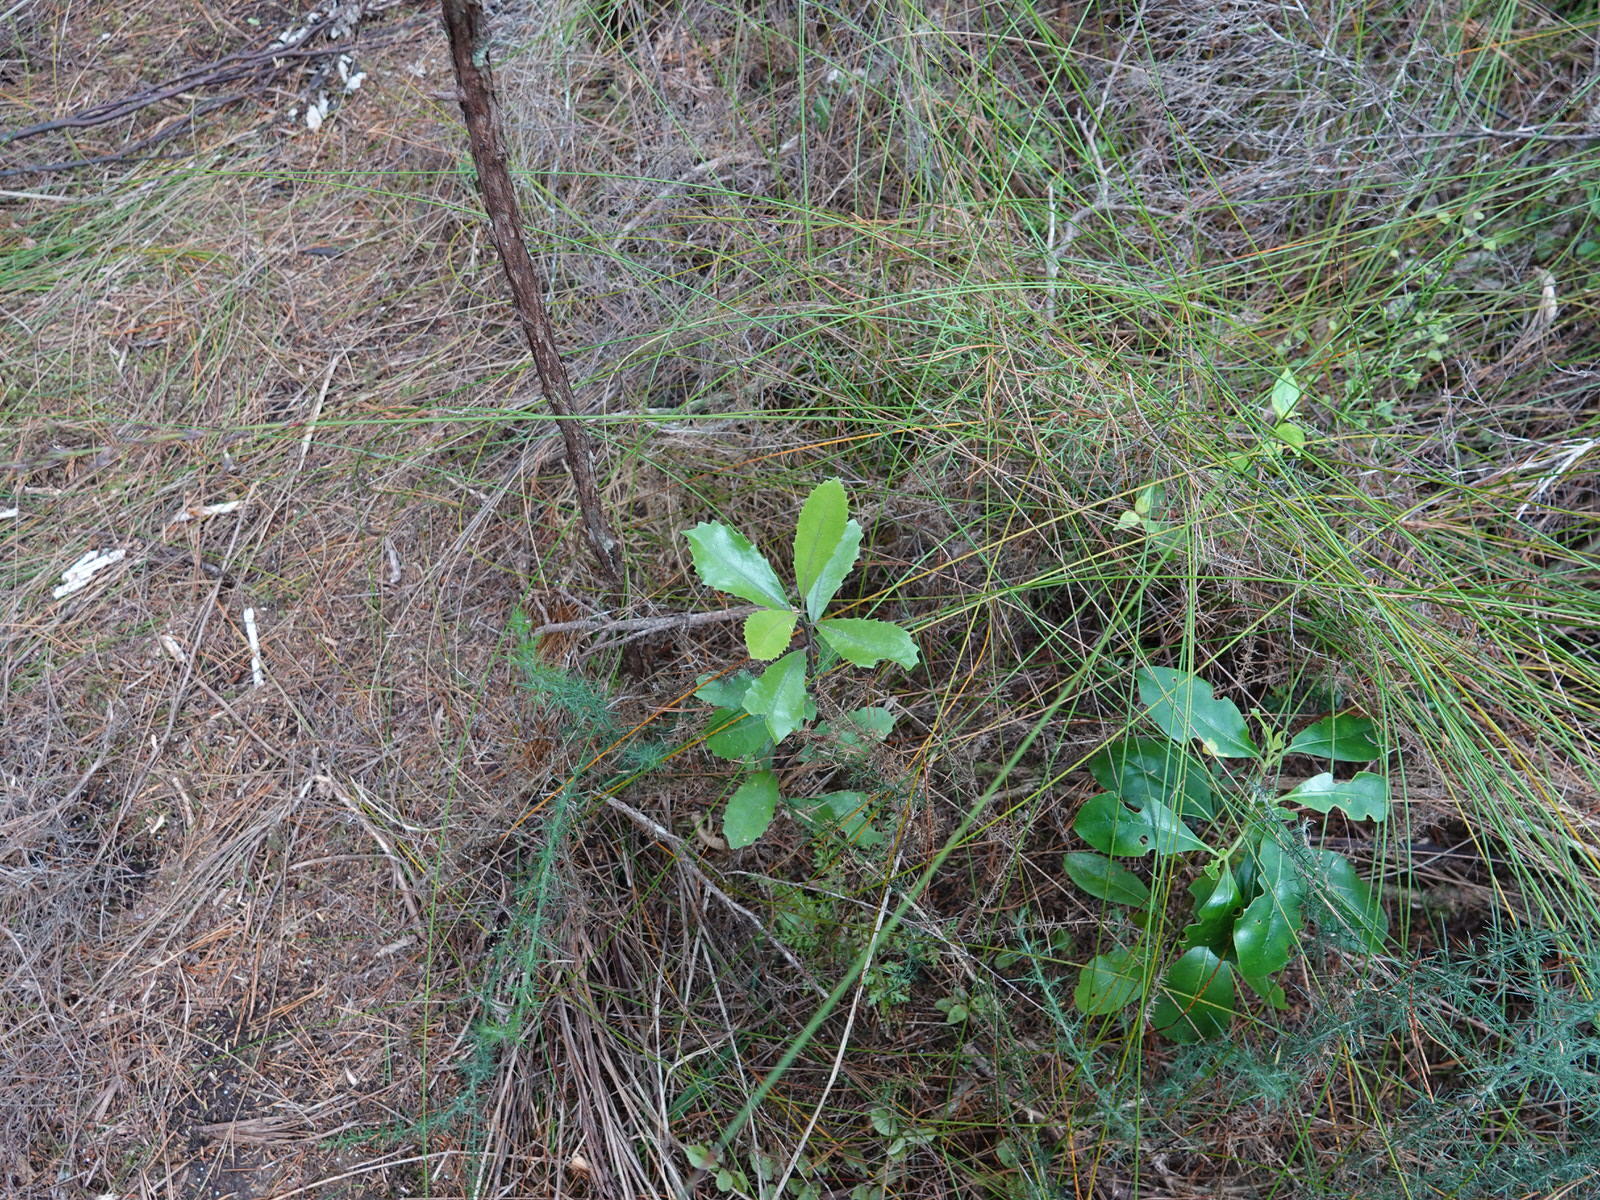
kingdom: Plantae
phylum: Tracheophyta
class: Magnoliopsida
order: Laurales
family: Monimiaceae
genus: Hedycarya
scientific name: Hedycarya arborea
